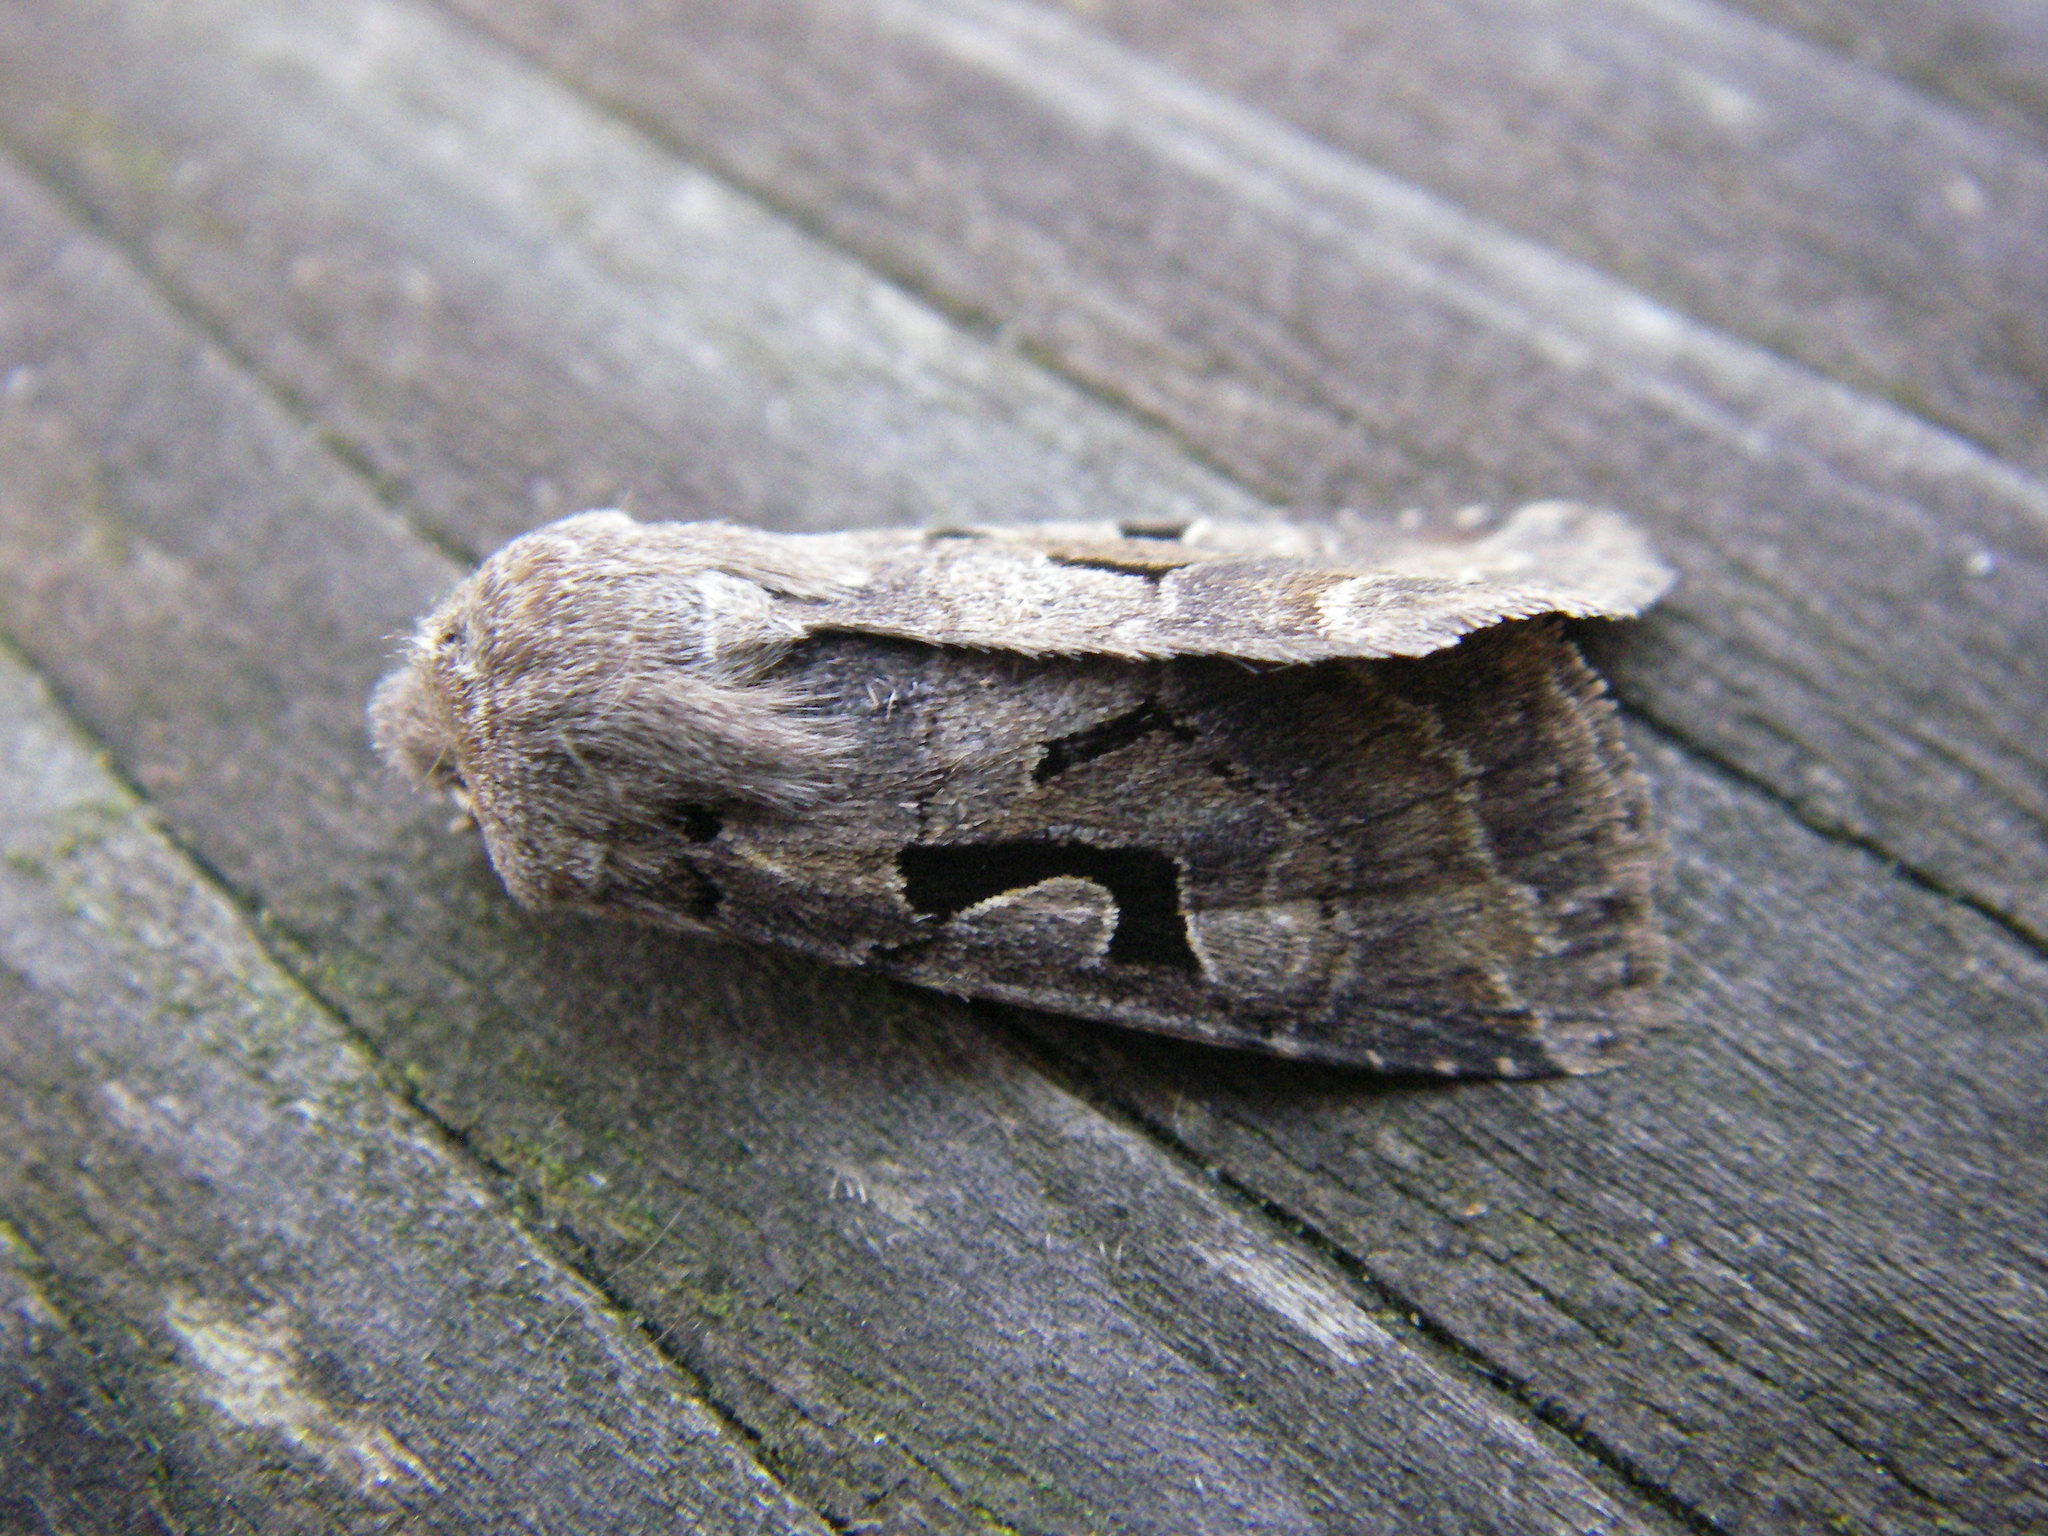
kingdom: Animalia
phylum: Arthropoda
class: Insecta
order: Lepidoptera
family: Noctuidae
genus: Orthosia
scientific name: Orthosia gothica
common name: Hebrew character
